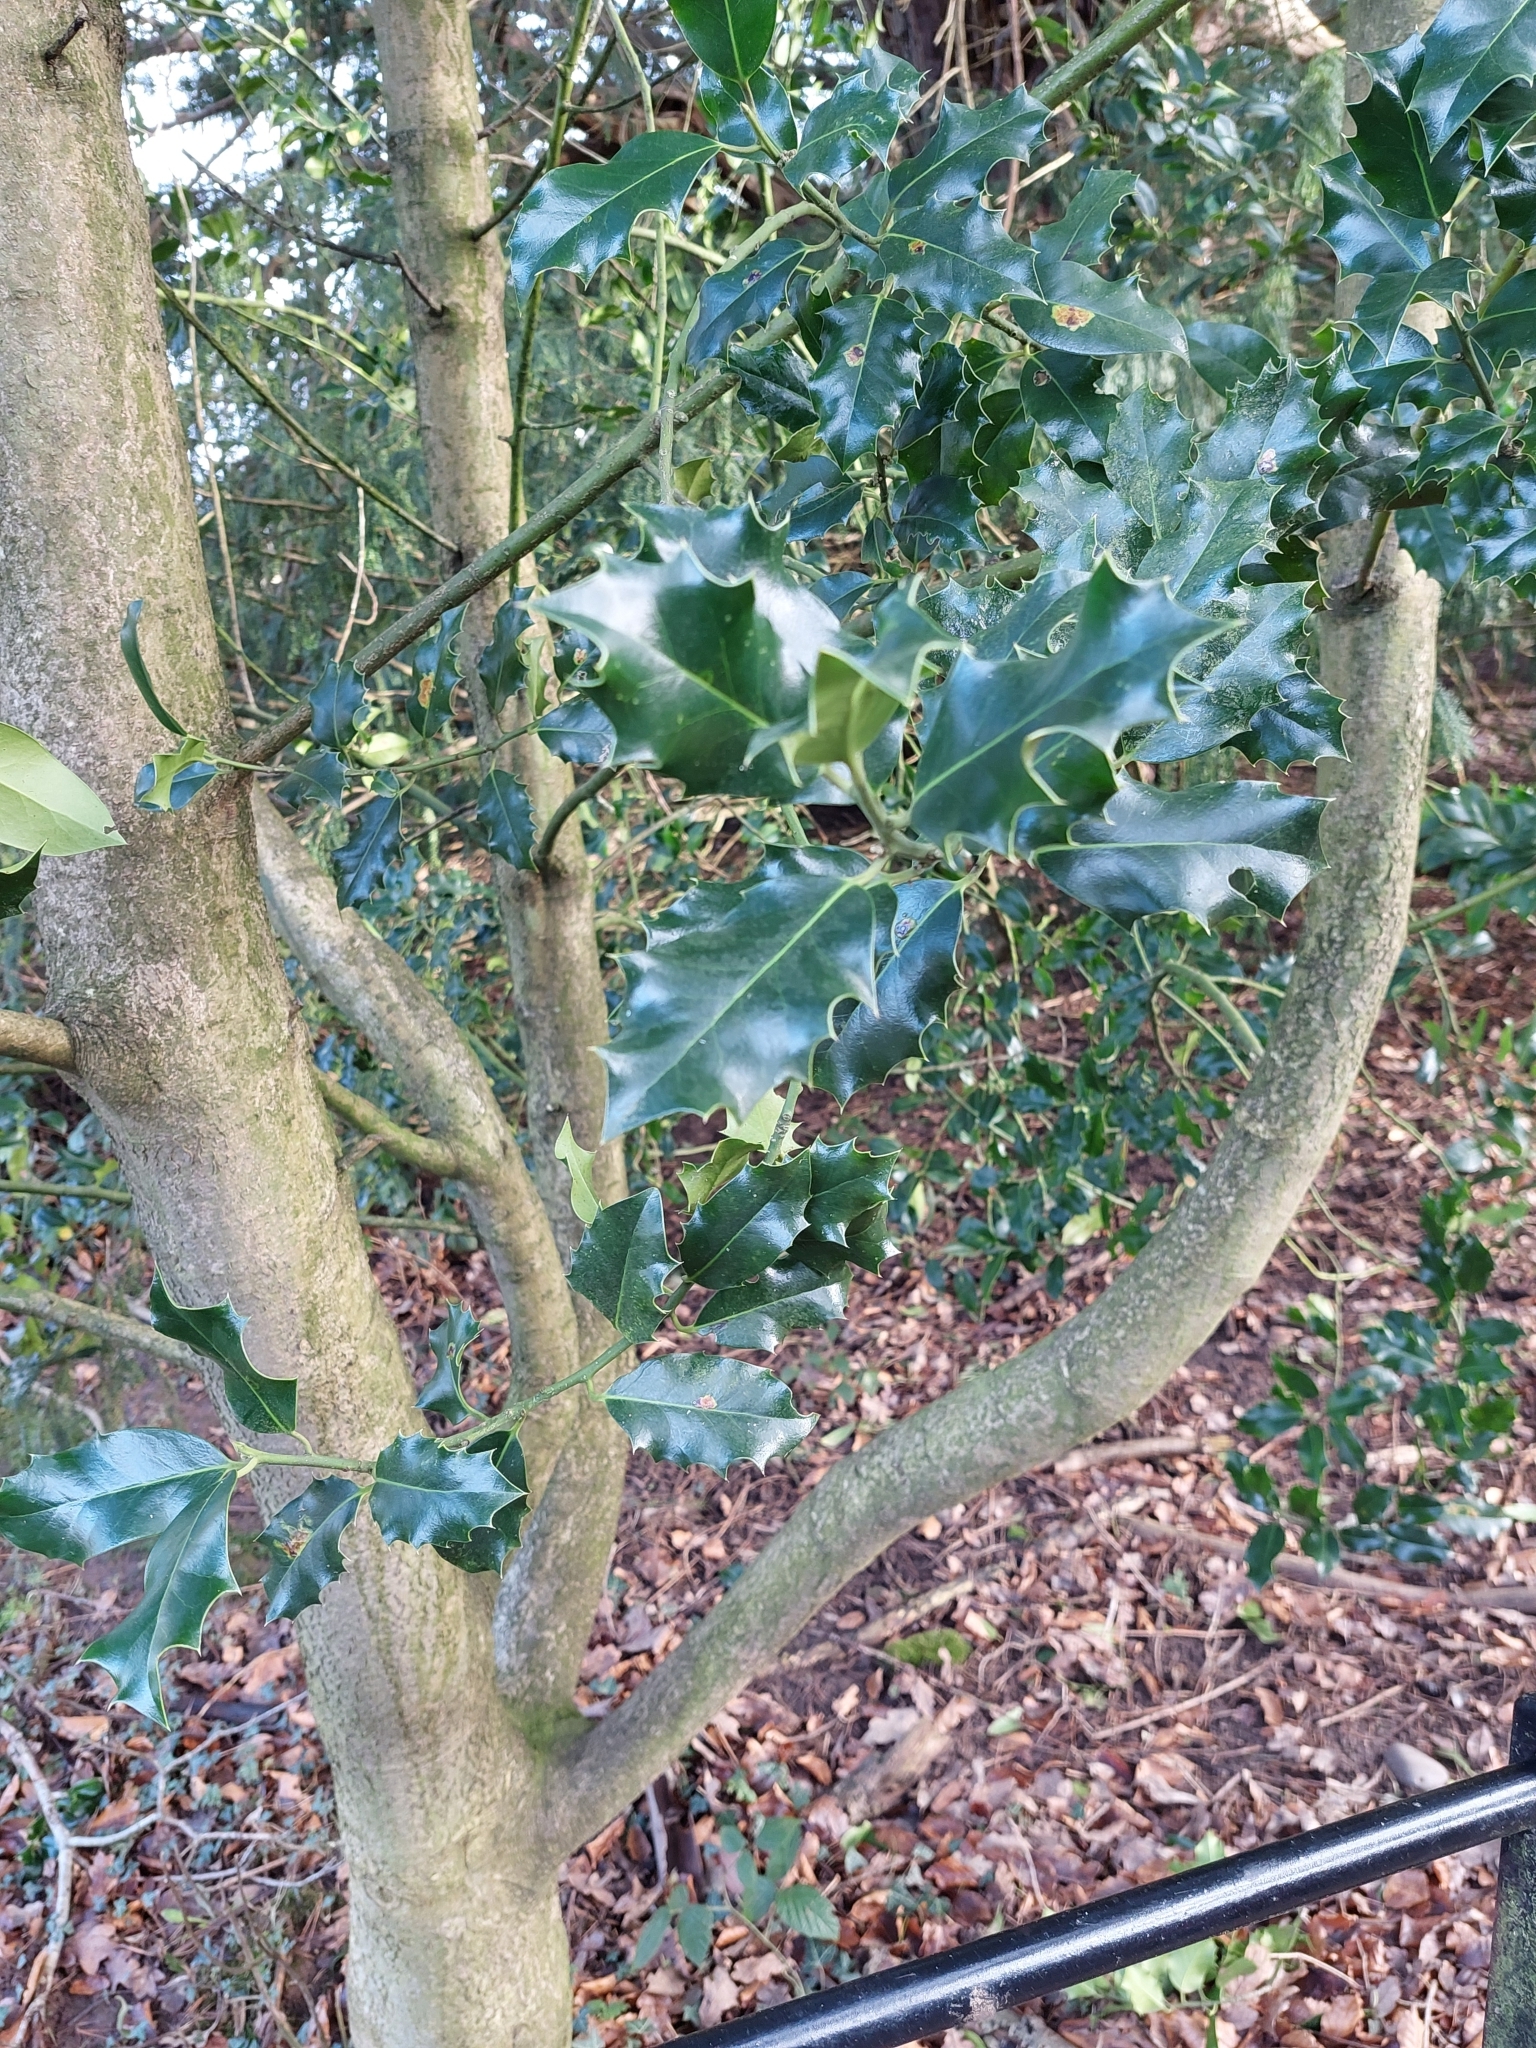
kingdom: Plantae
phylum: Tracheophyta
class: Magnoliopsida
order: Aquifoliales
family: Aquifoliaceae
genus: Ilex
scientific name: Ilex aquifolium
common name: English holly
